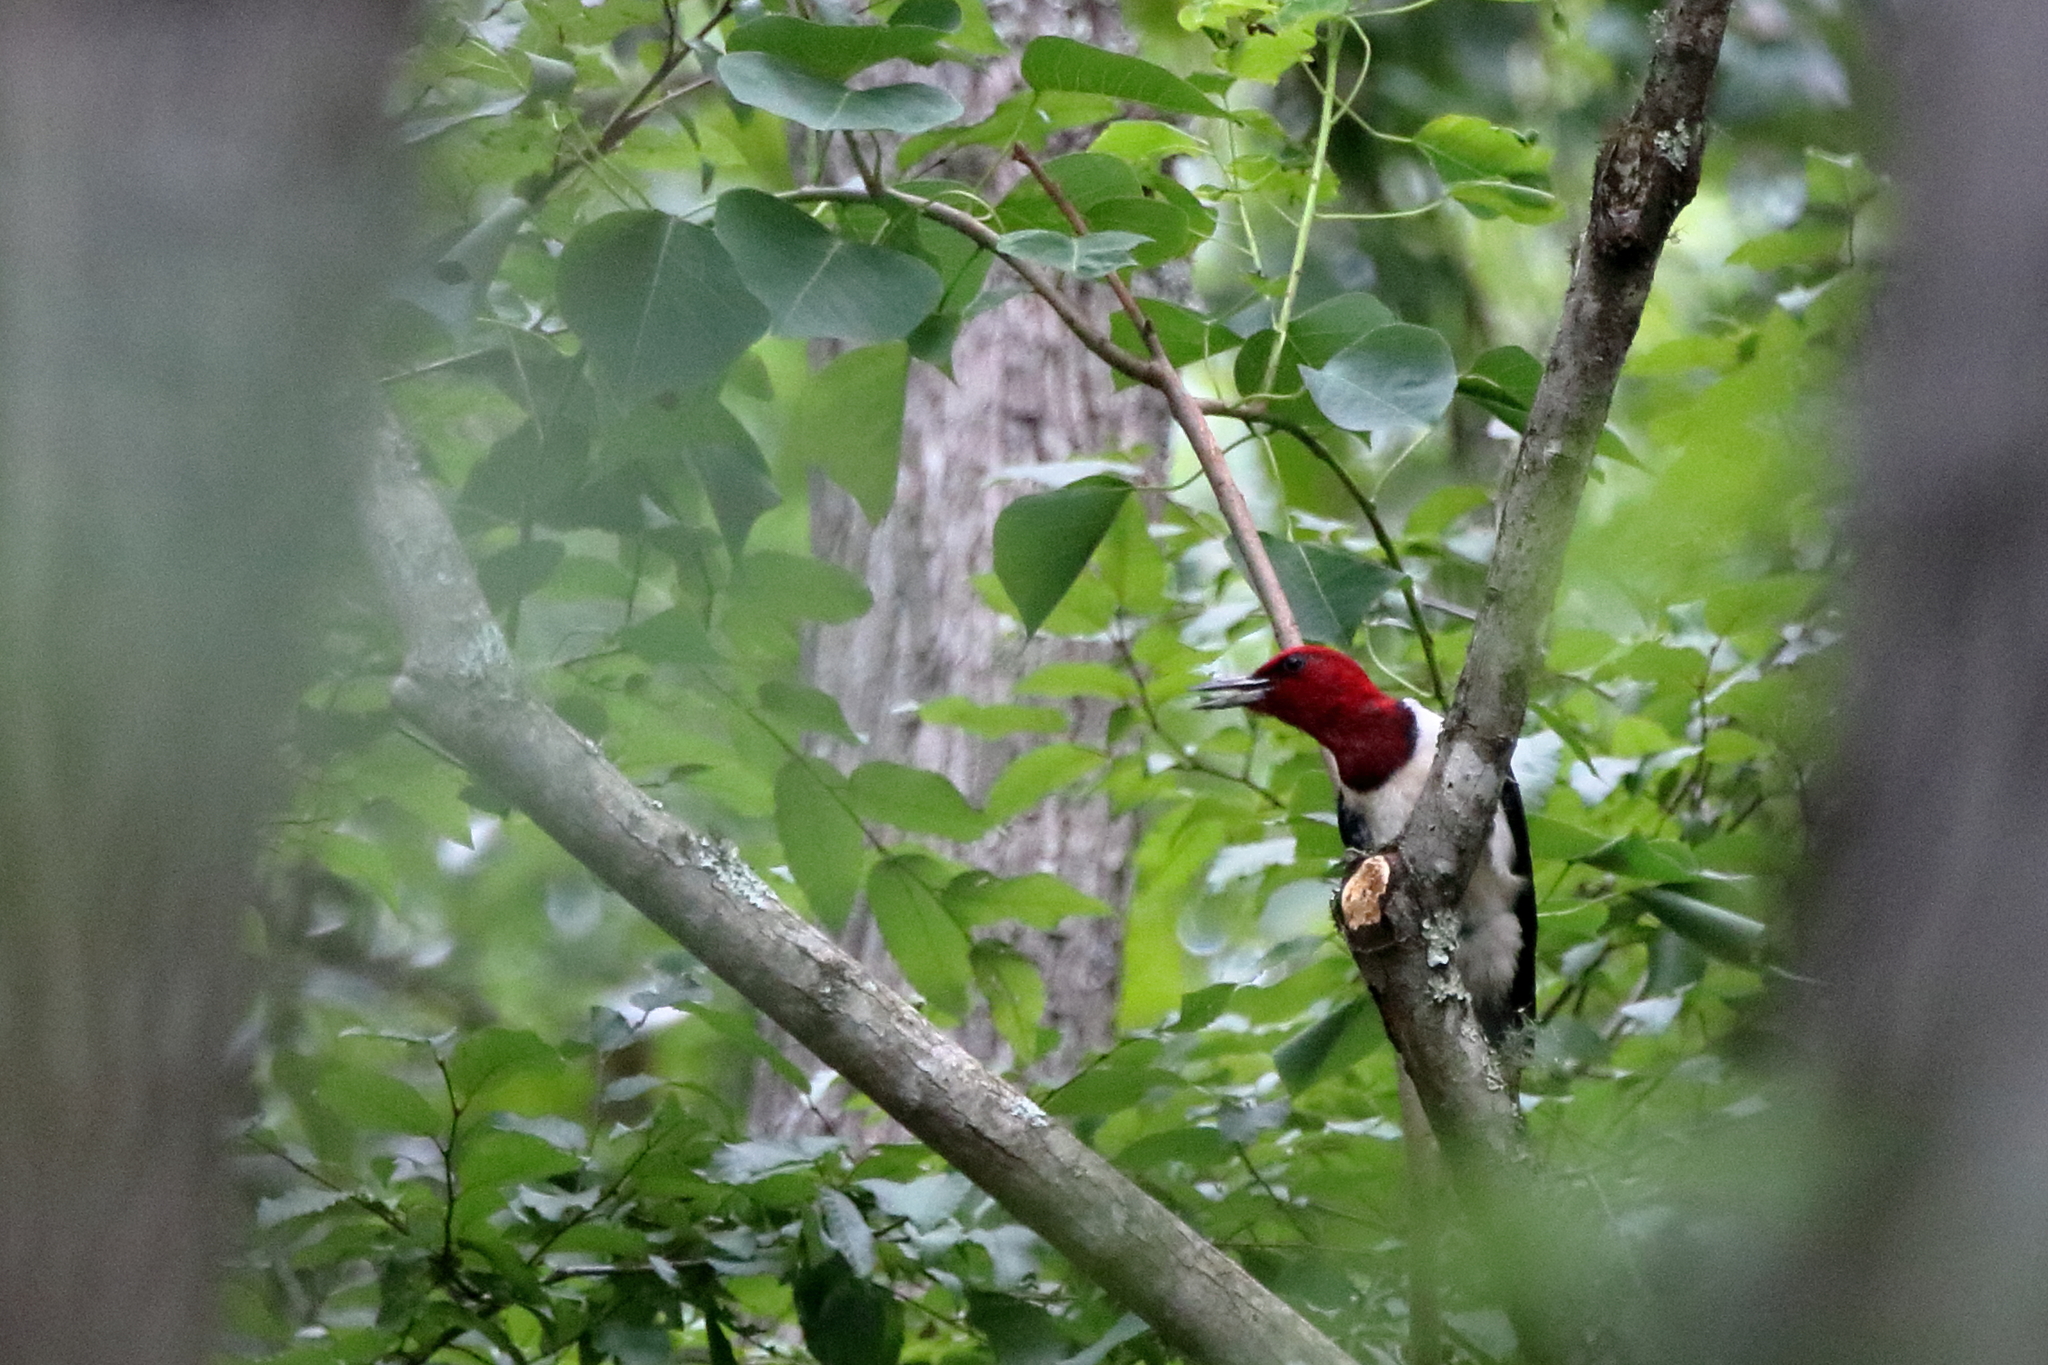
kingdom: Animalia
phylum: Chordata
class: Aves
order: Piciformes
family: Picidae
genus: Melanerpes
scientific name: Melanerpes erythrocephalus
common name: Red-headed woodpecker
